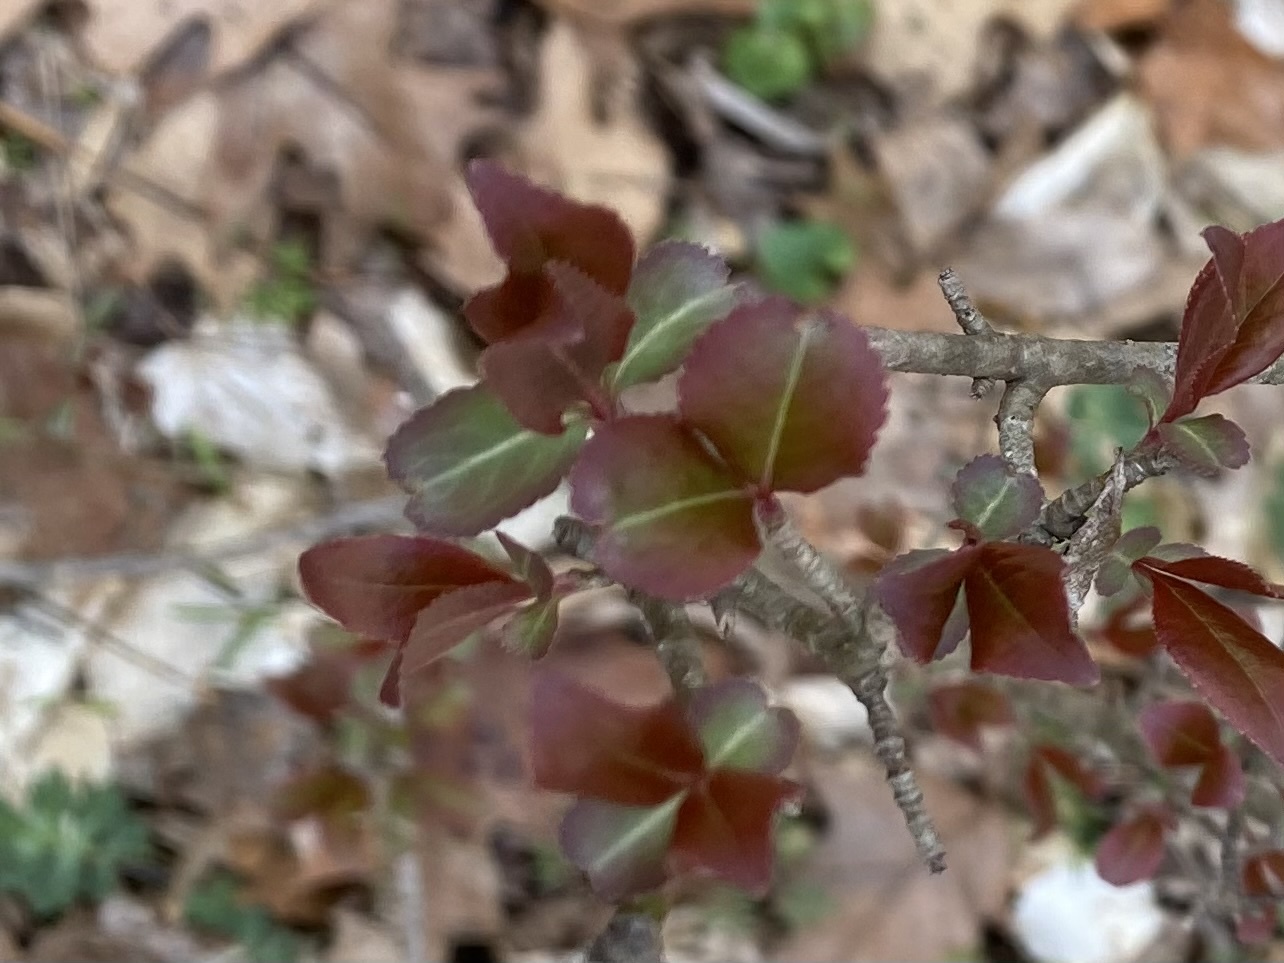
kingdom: Plantae
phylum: Tracheophyta
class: Magnoliopsida
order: Dipsacales
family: Viburnaceae
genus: Viburnum
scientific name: Viburnum prunifolium
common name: Black haw
